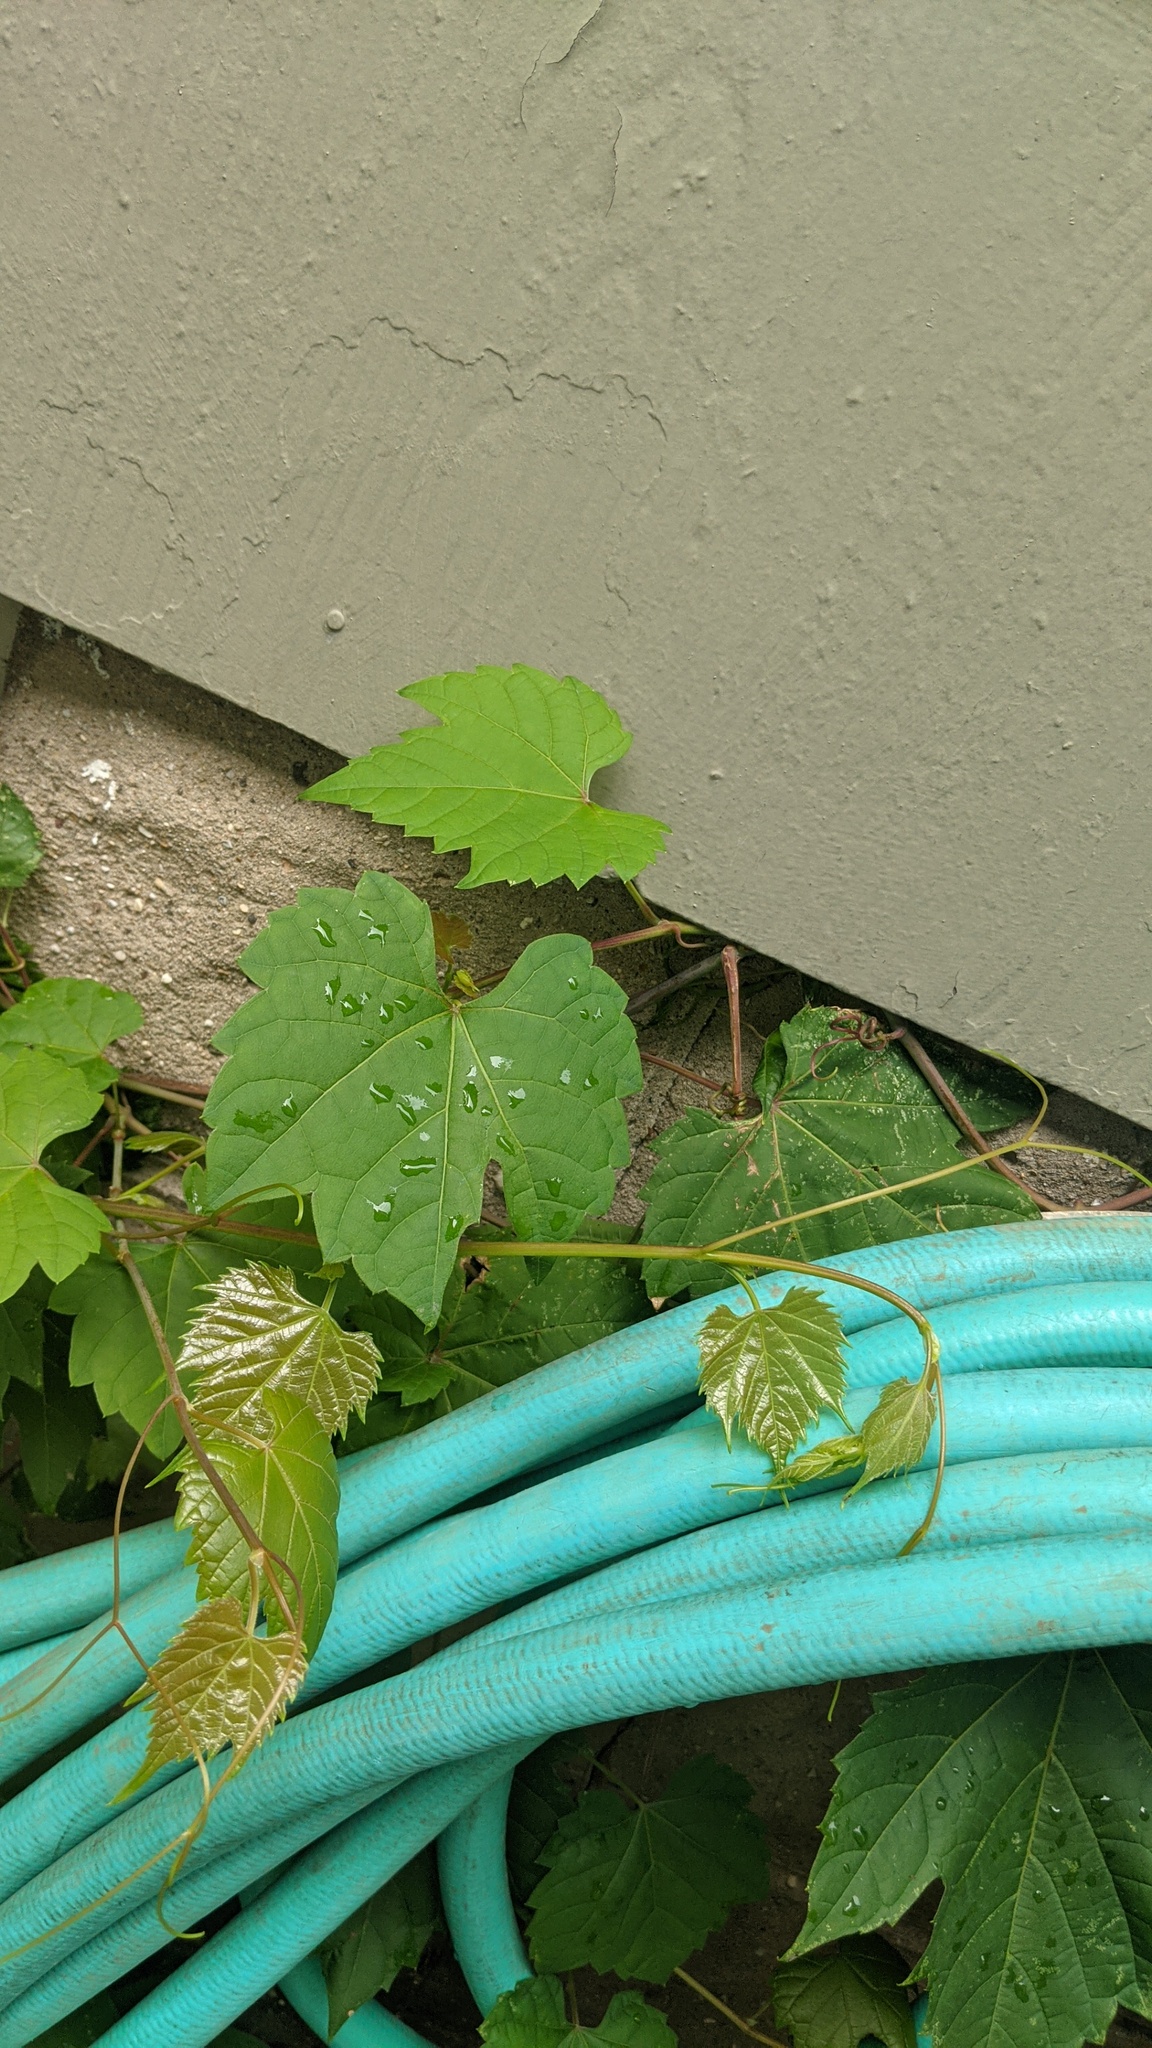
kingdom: Plantae
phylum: Tracheophyta
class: Magnoliopsida
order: Vitales
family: Vitaceae
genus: Vitis
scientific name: Vitis riparia
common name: Frost grape
